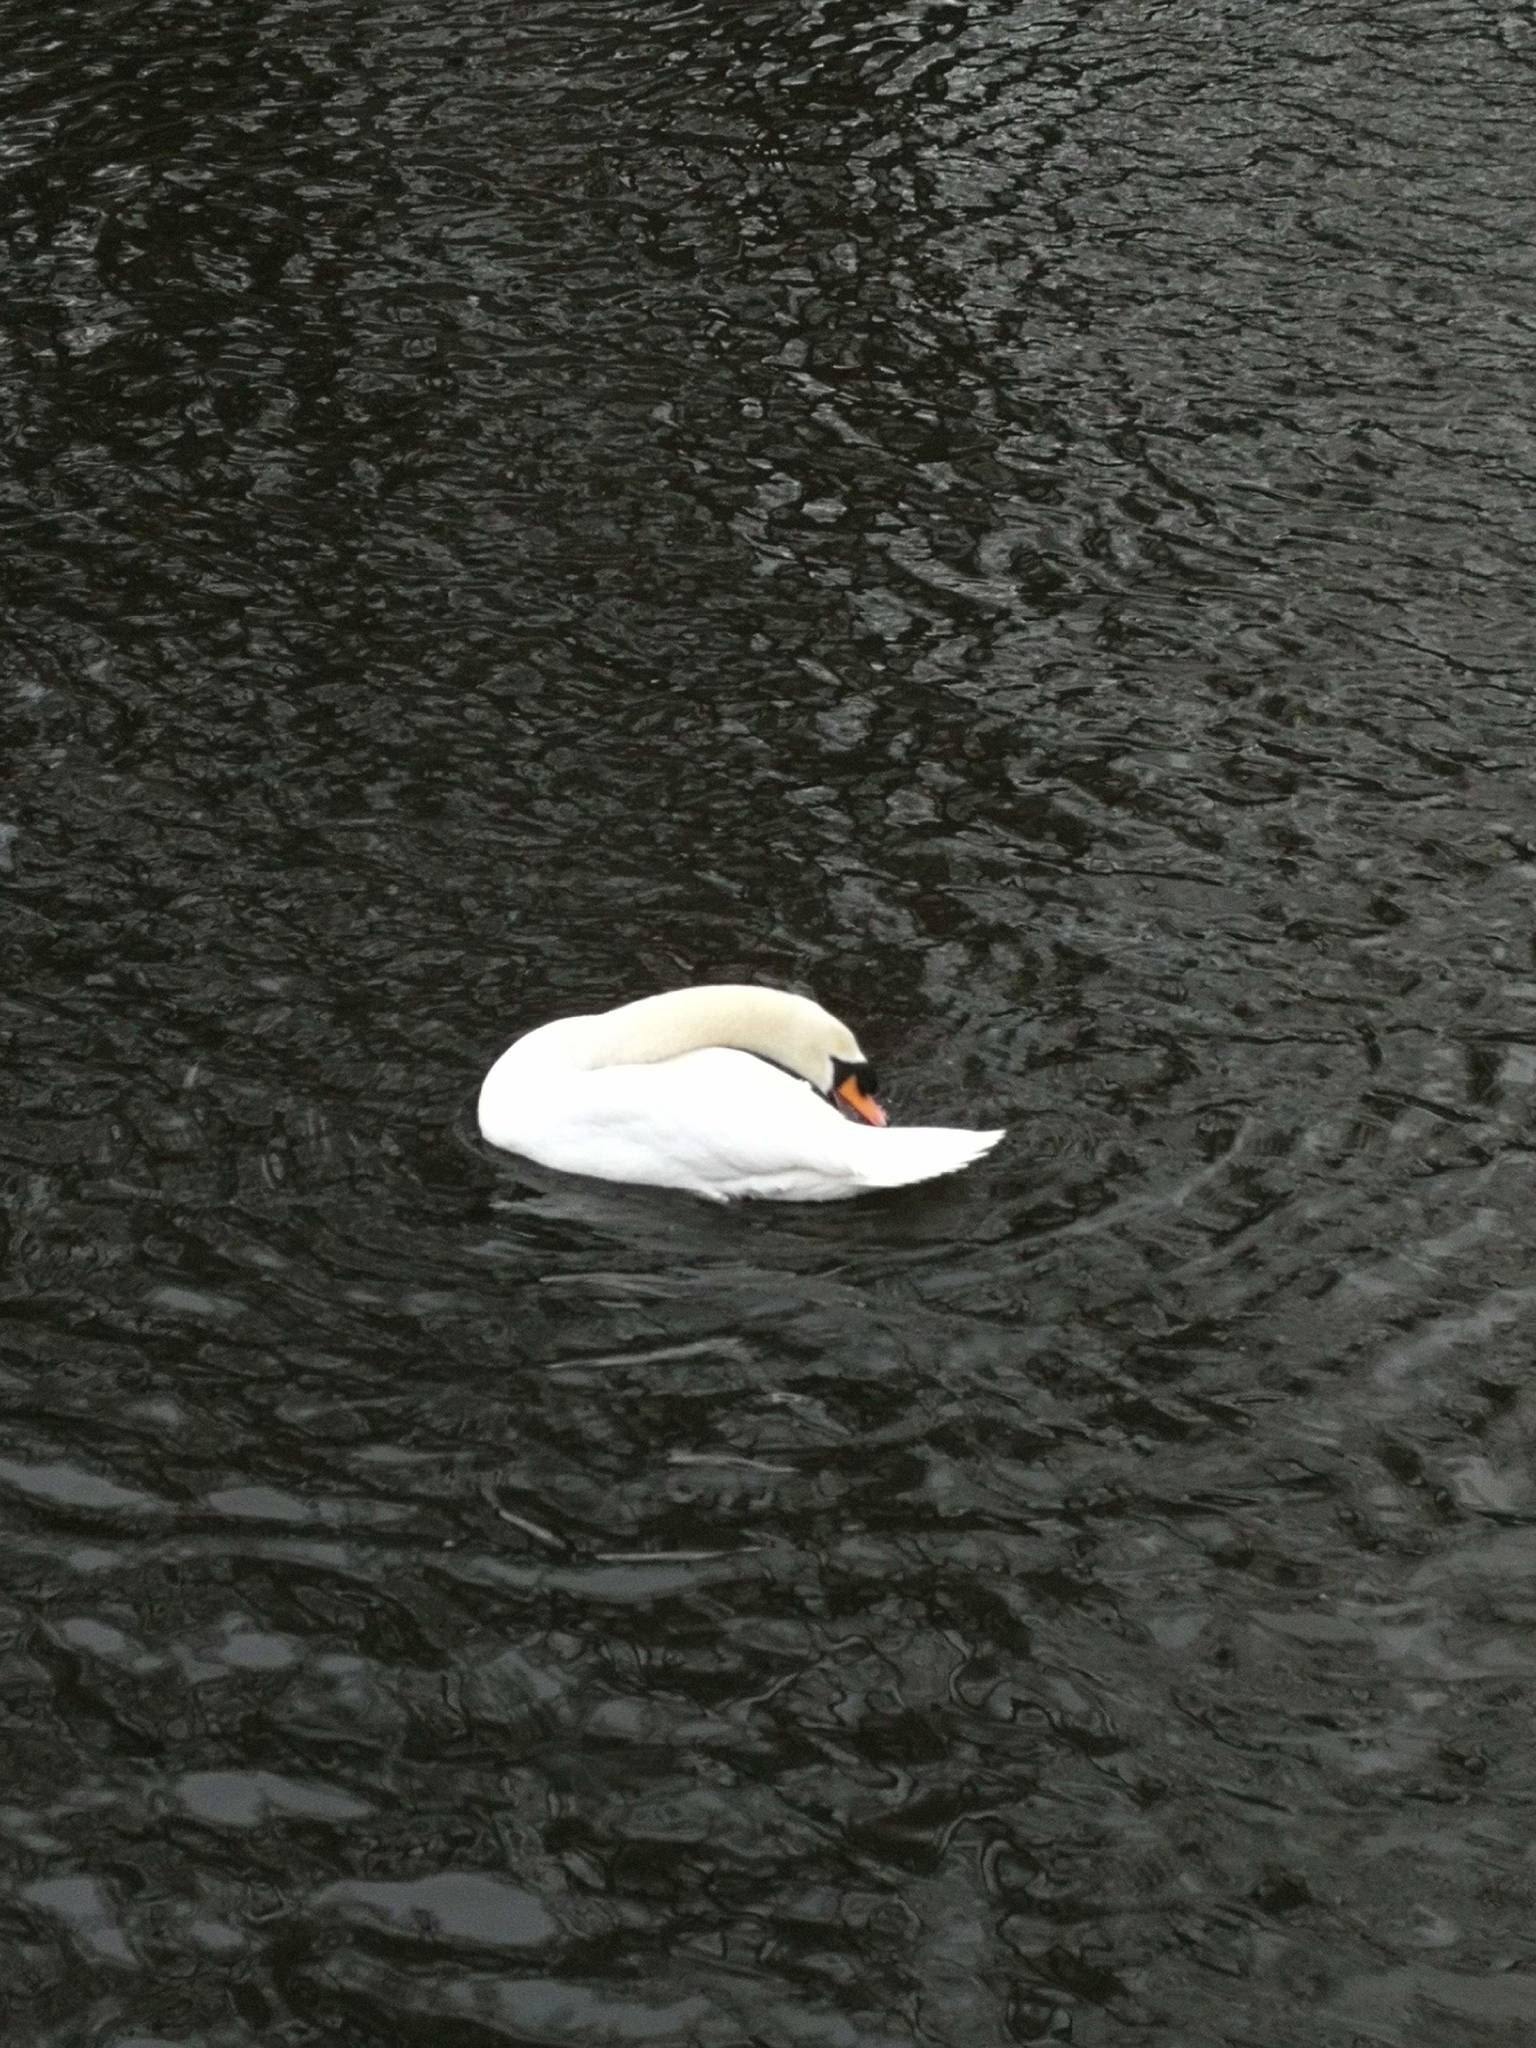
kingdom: Animalia
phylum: Chordata
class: Aves
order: Anseriformes
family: Anatidae
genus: Cygnus
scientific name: Cygnus olor
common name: Mute swan
